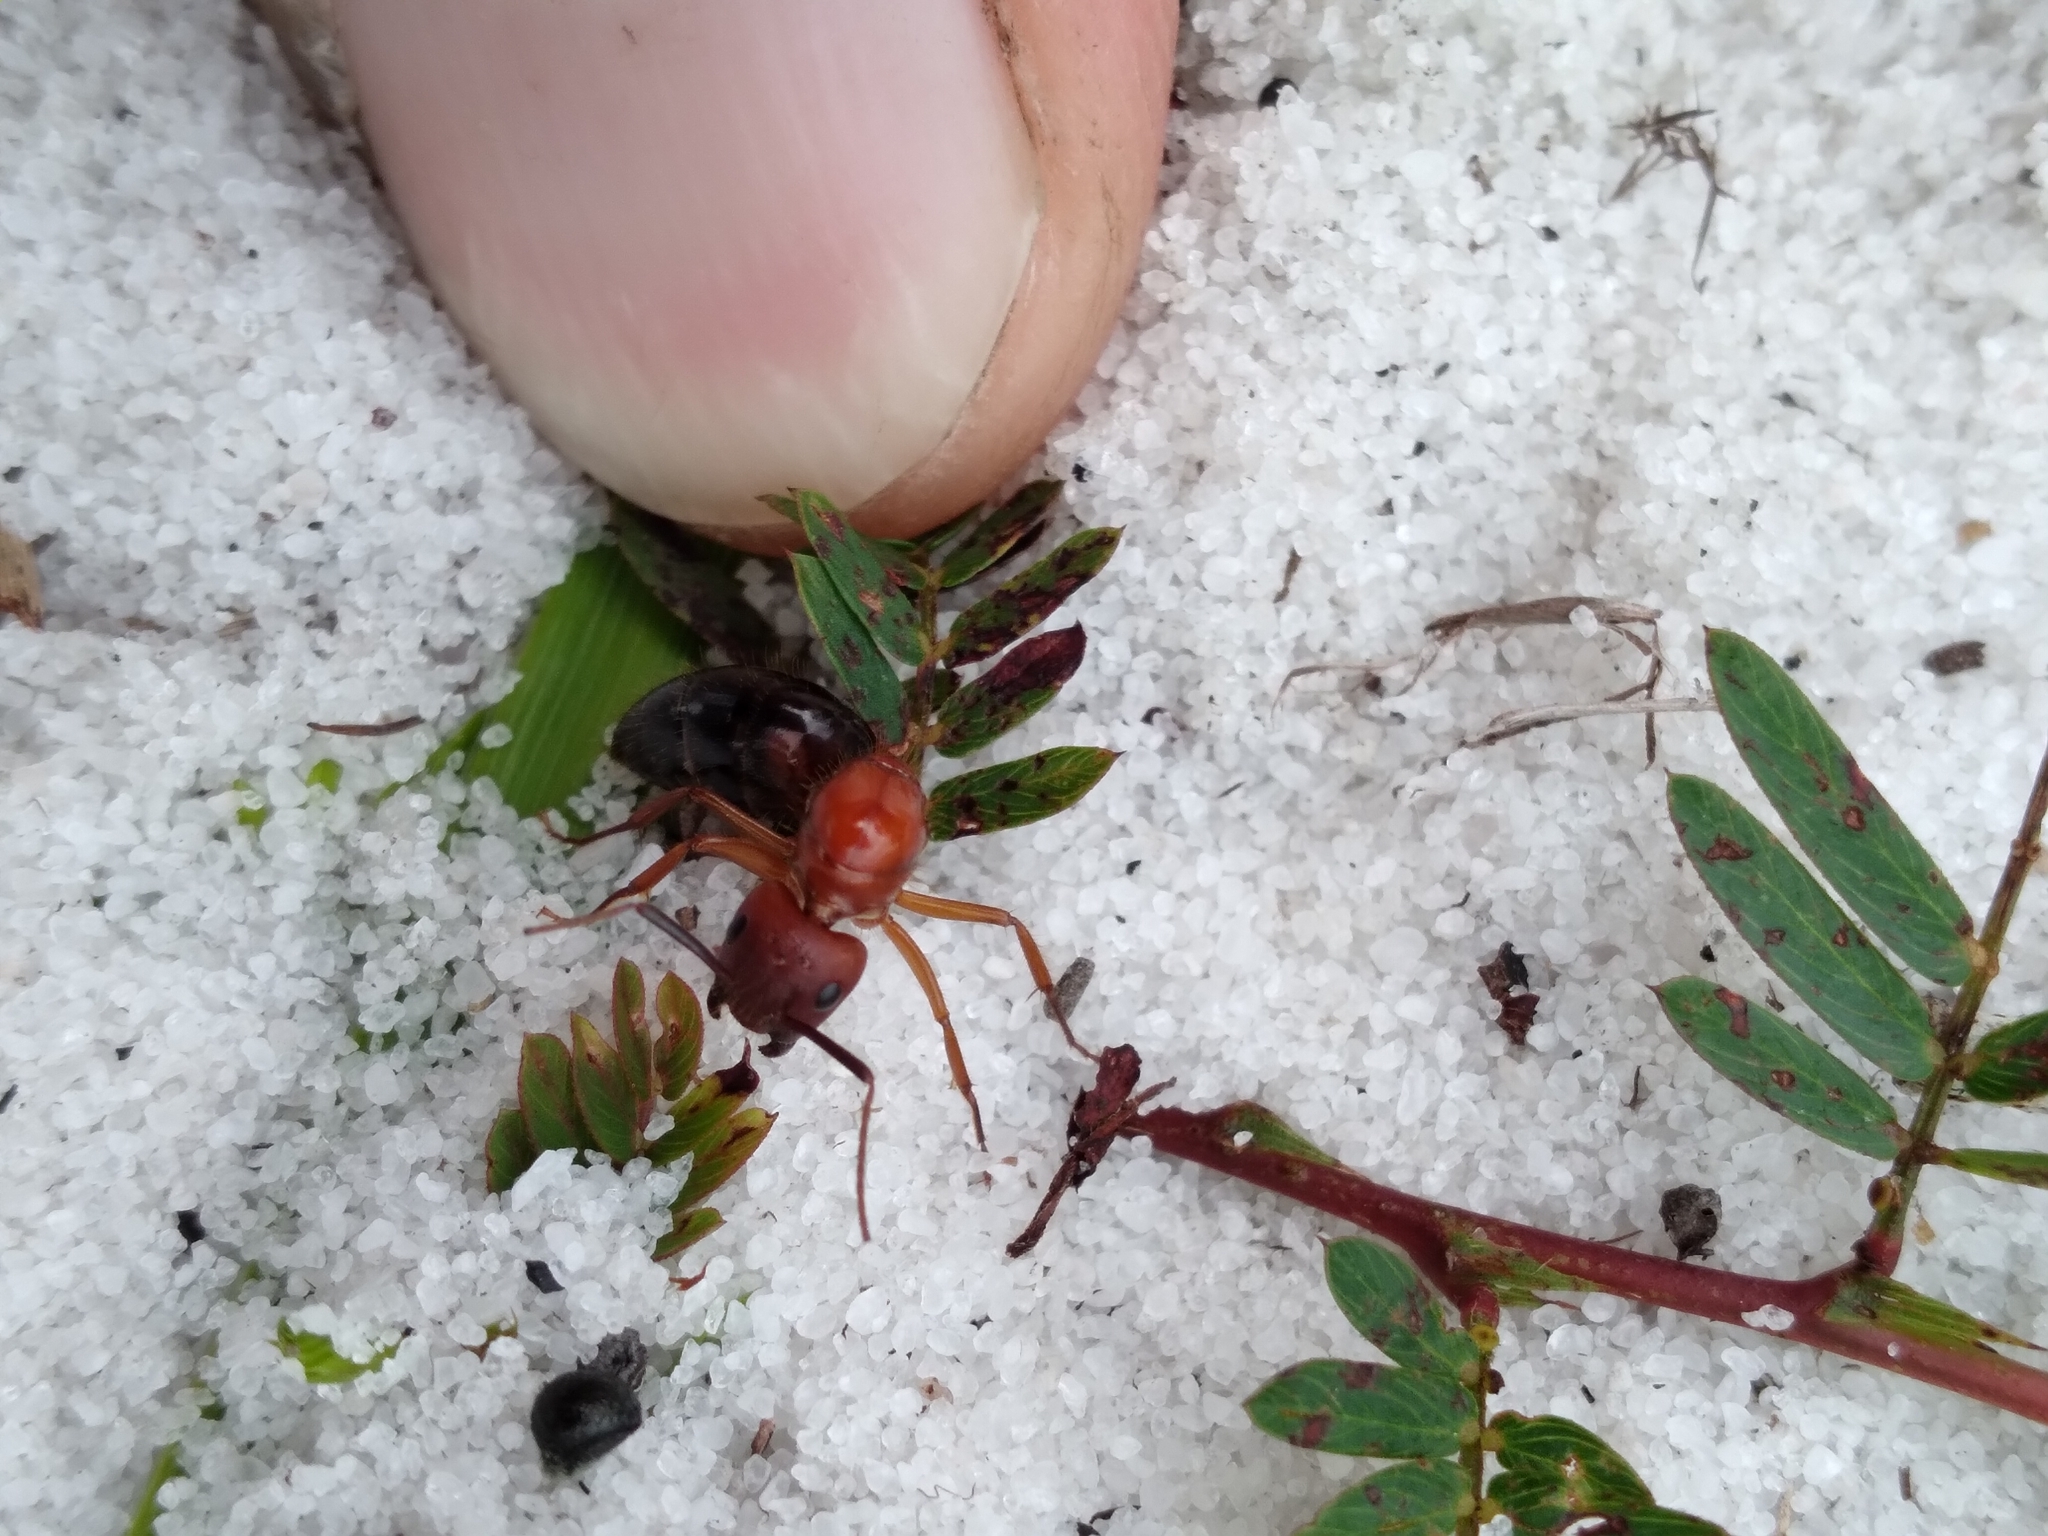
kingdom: Animalia
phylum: Arthropoda
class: Insecta
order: Hymenoptera
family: Formicidae
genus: Camponotus
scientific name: Camponotus floridanus
